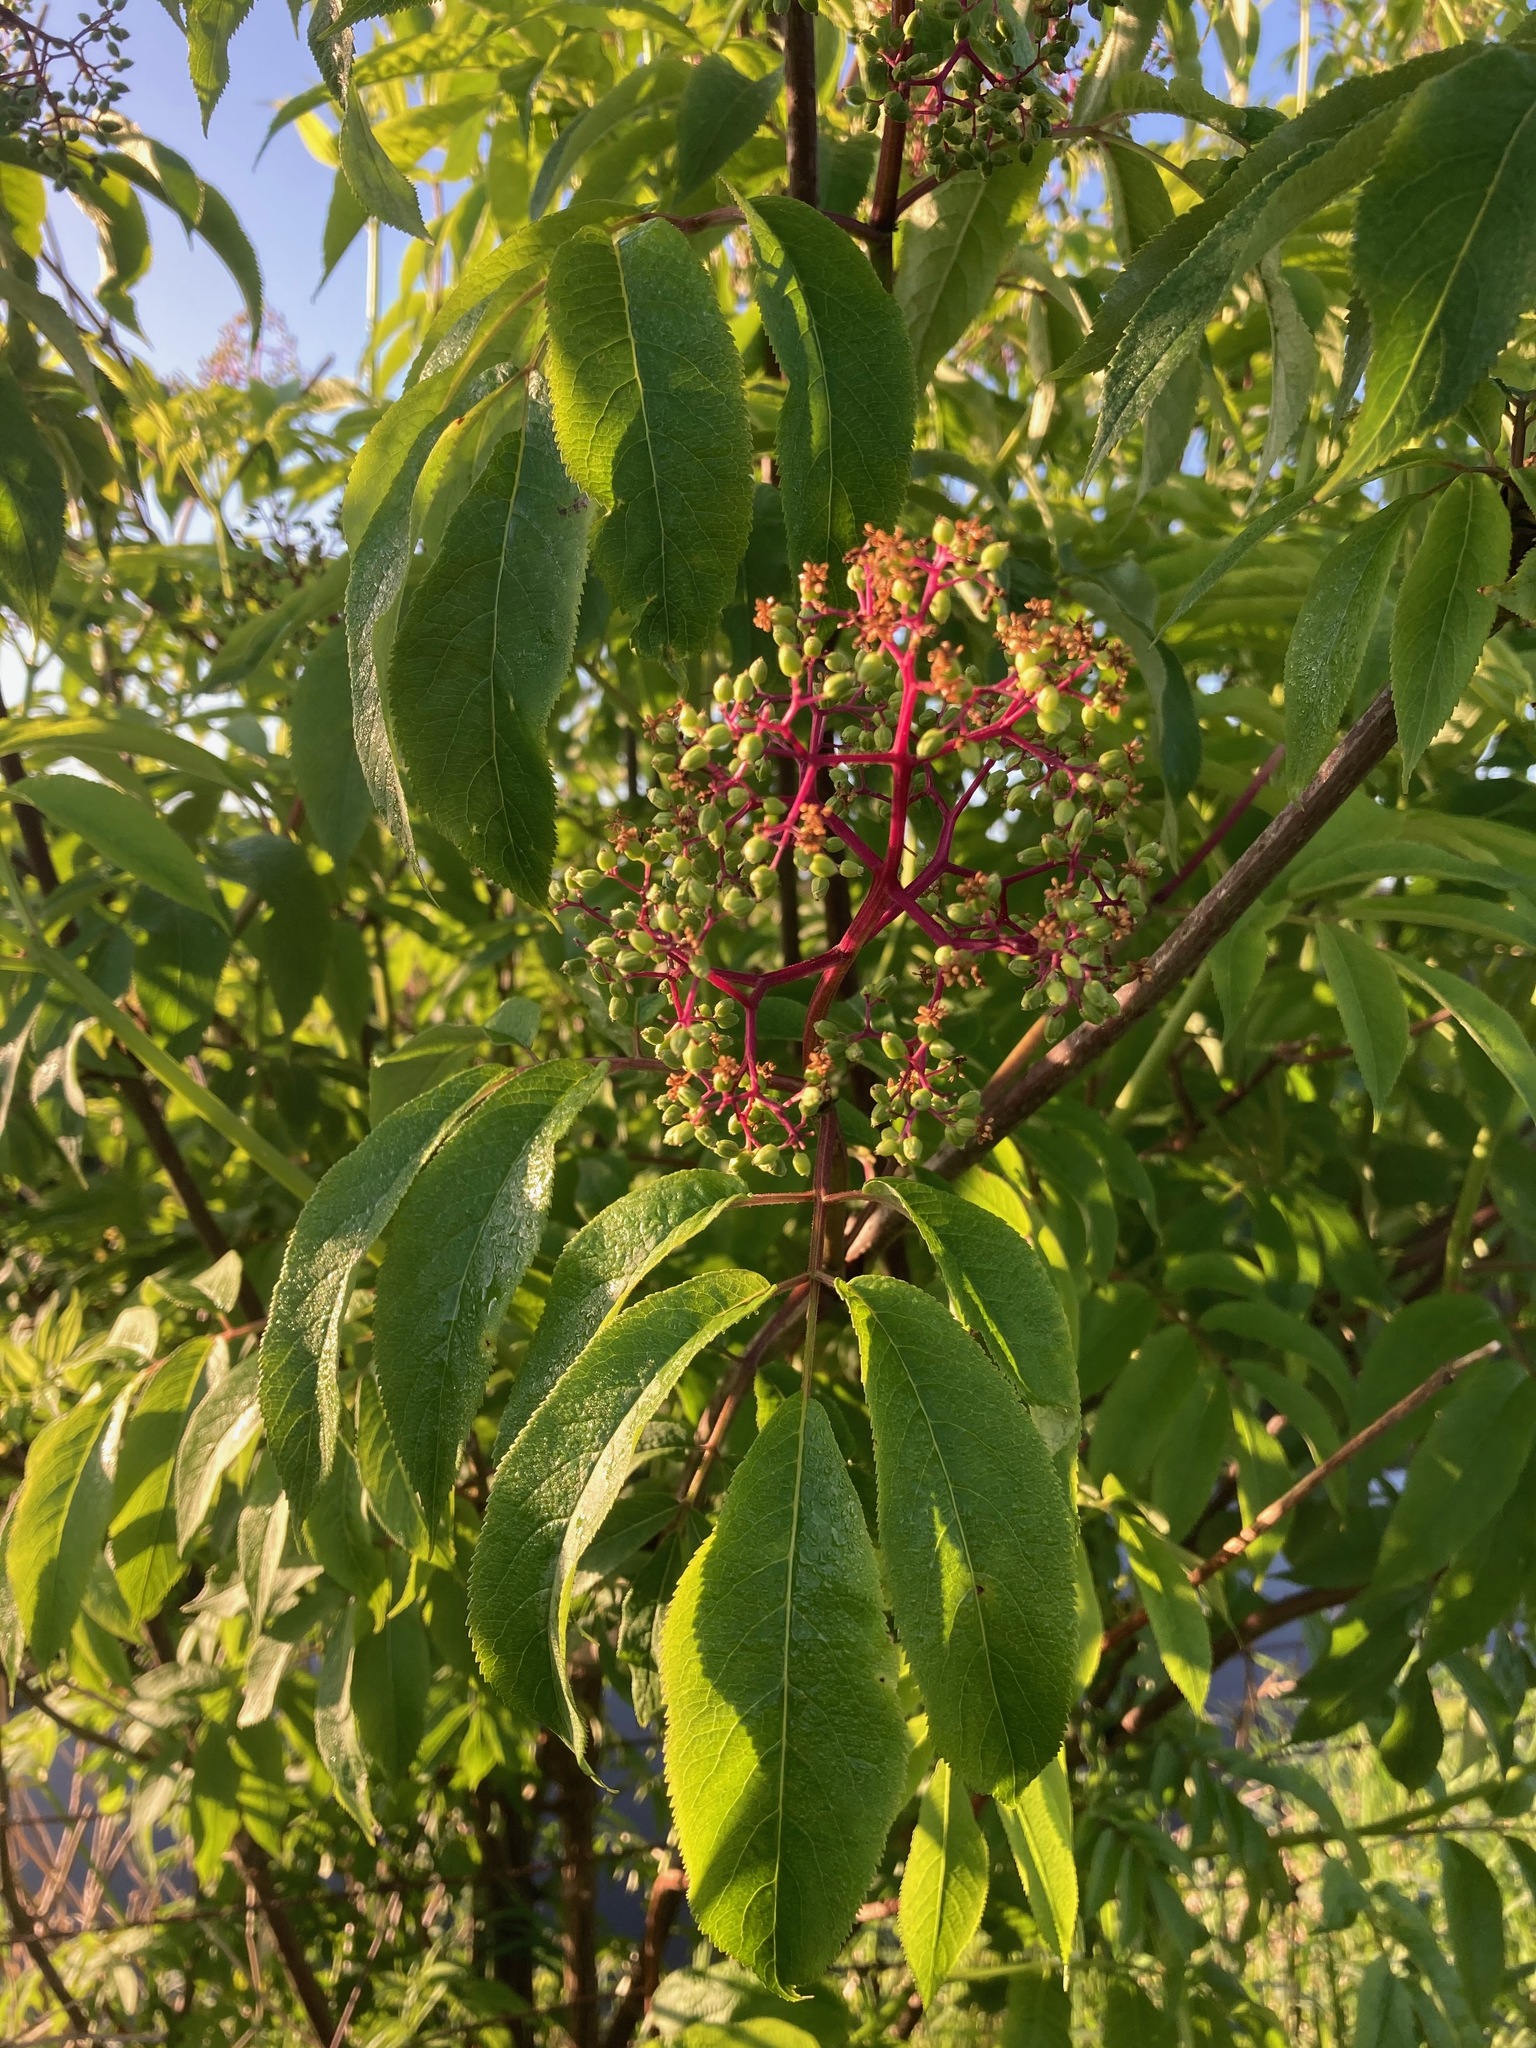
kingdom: Plantae
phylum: Tracheophyta
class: Magnoliopsida
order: Dipsacales
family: Viburnaceae
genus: Sambucus
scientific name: Sambucus racemosa
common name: Red-berried elder
